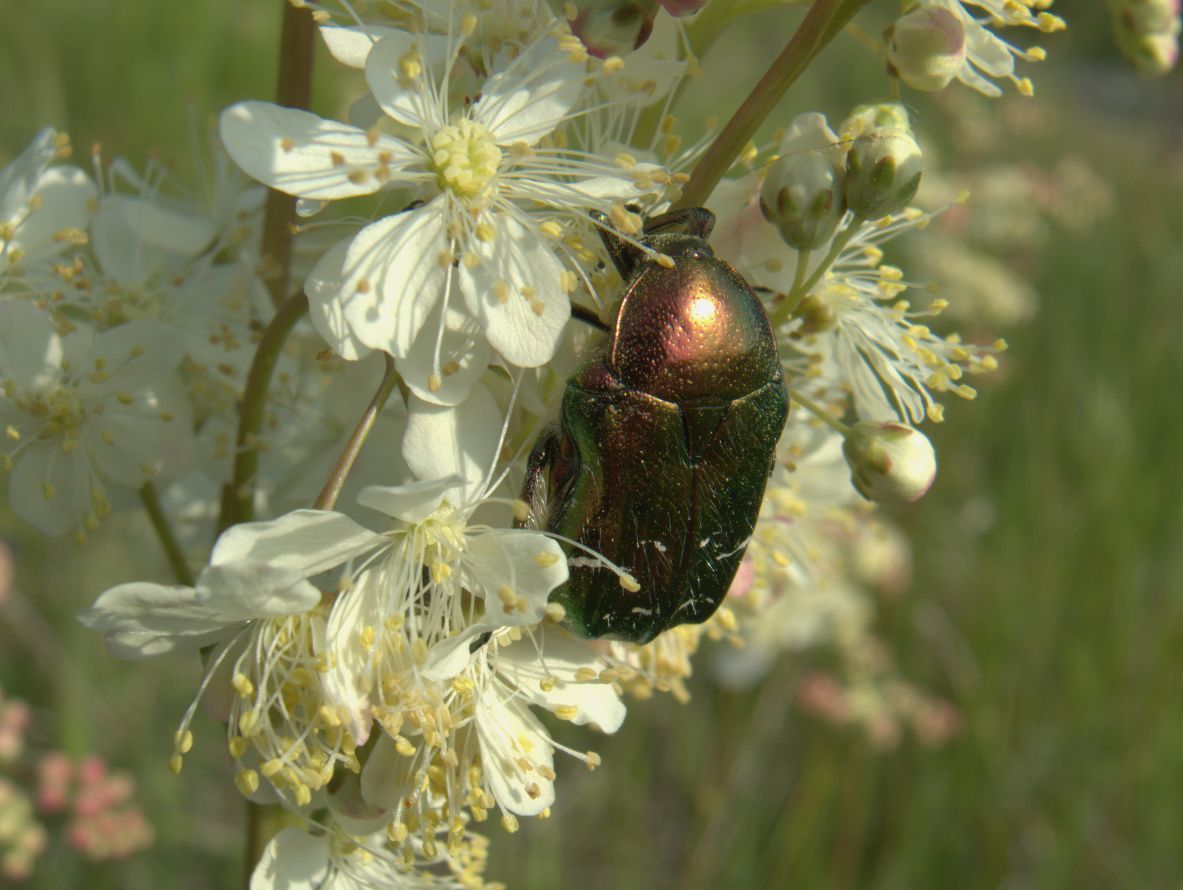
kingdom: Animalia
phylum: Arthropoda
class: Insecta
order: Coleoptera
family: Scarabaeidae
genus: Cetonia
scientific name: Cetonia aurata
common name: Rose chafer
